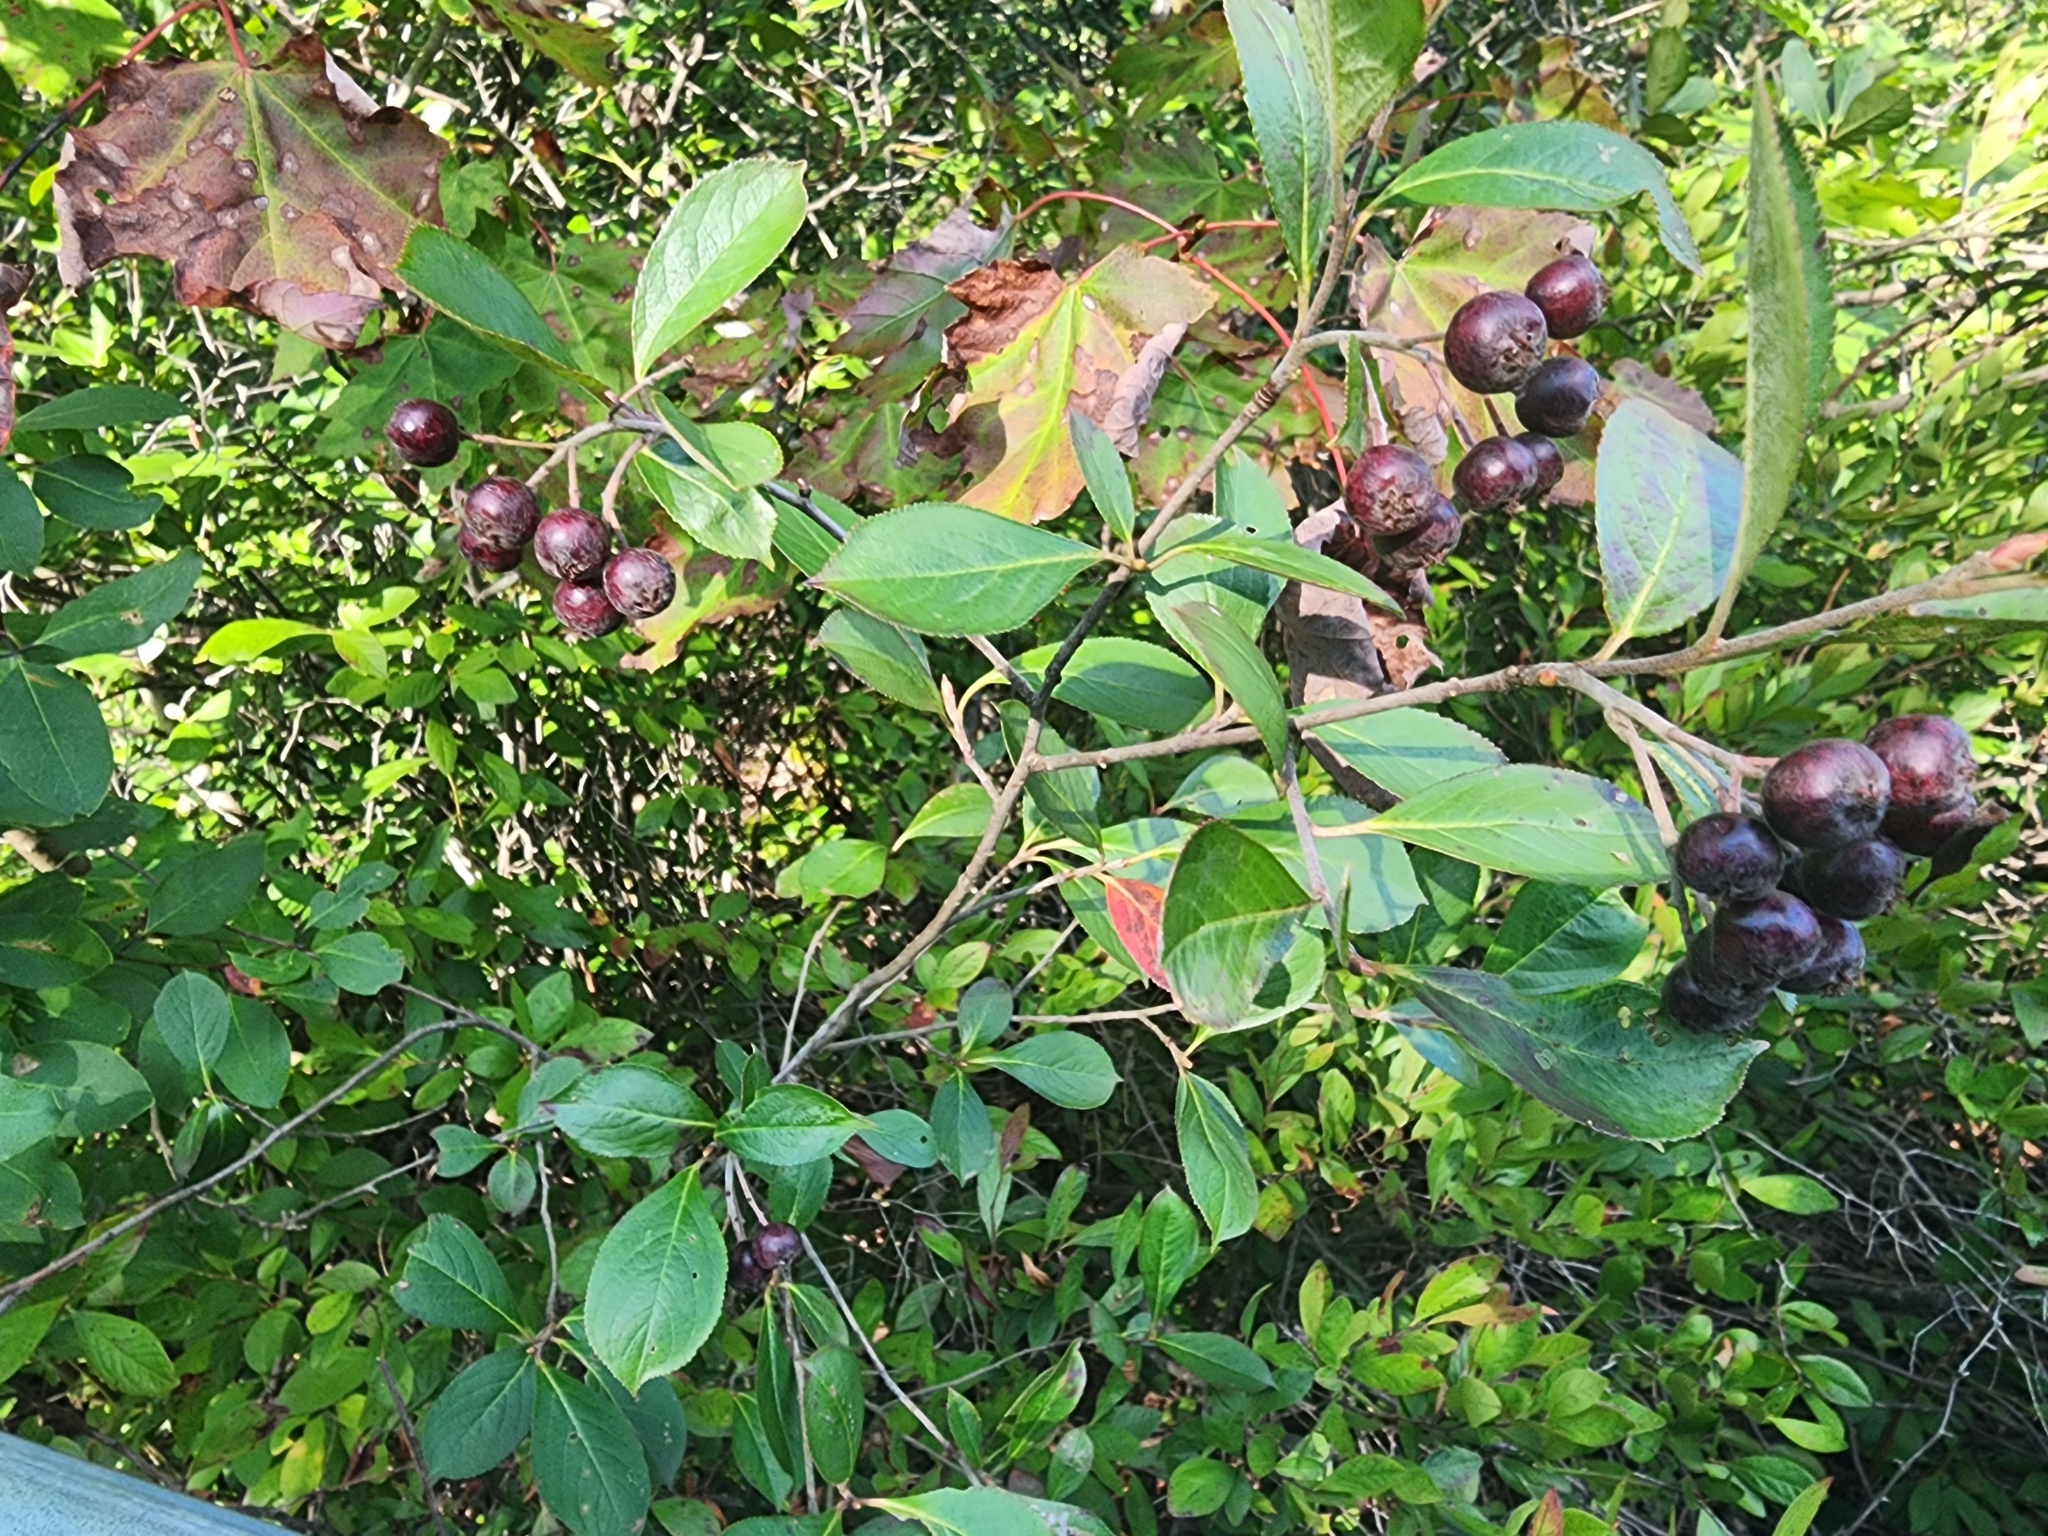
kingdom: Plantae
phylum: Tracheophyta
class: Magnoliopsida
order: Rosales
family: Rosaceae
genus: Aronia
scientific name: Aronia melanocarpa
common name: Black chokeberry
